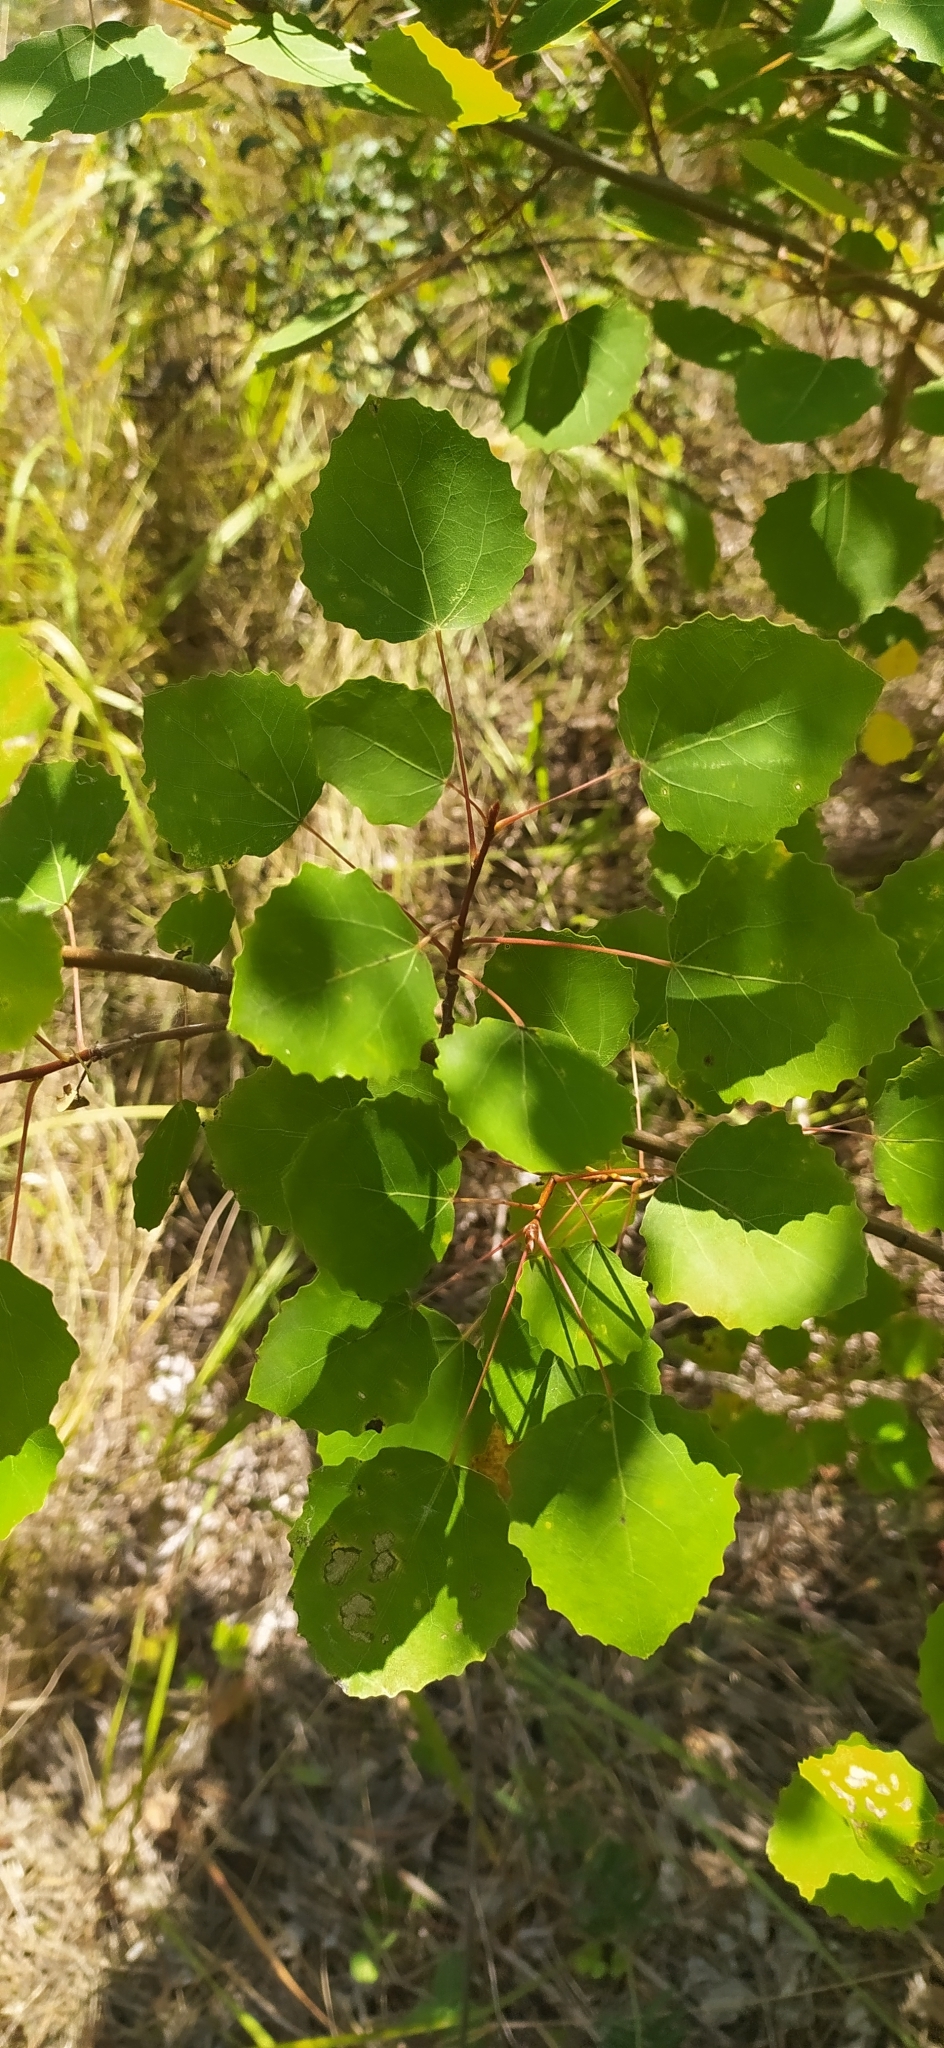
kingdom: Plantae
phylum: Tracheophyta
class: Magnoliopsida
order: Malpighiales
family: Salicaceae
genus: Populus
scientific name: Populus tremula
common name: European aspen
